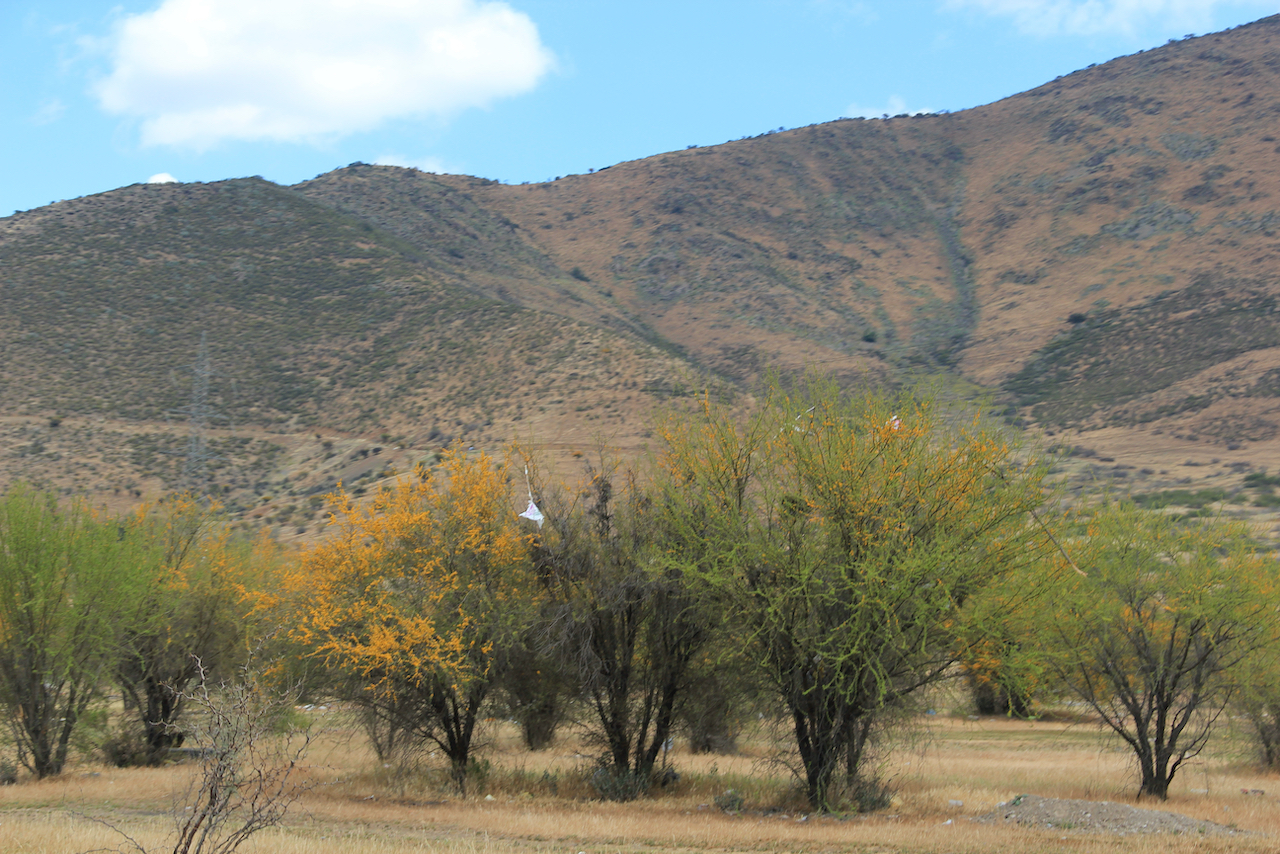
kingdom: Plantae
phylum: Tracheophyta
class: Magnoliopsida
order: Fabales
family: Fabaceae
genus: Vachellia
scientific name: Vachellia caven
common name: Roman cassie
